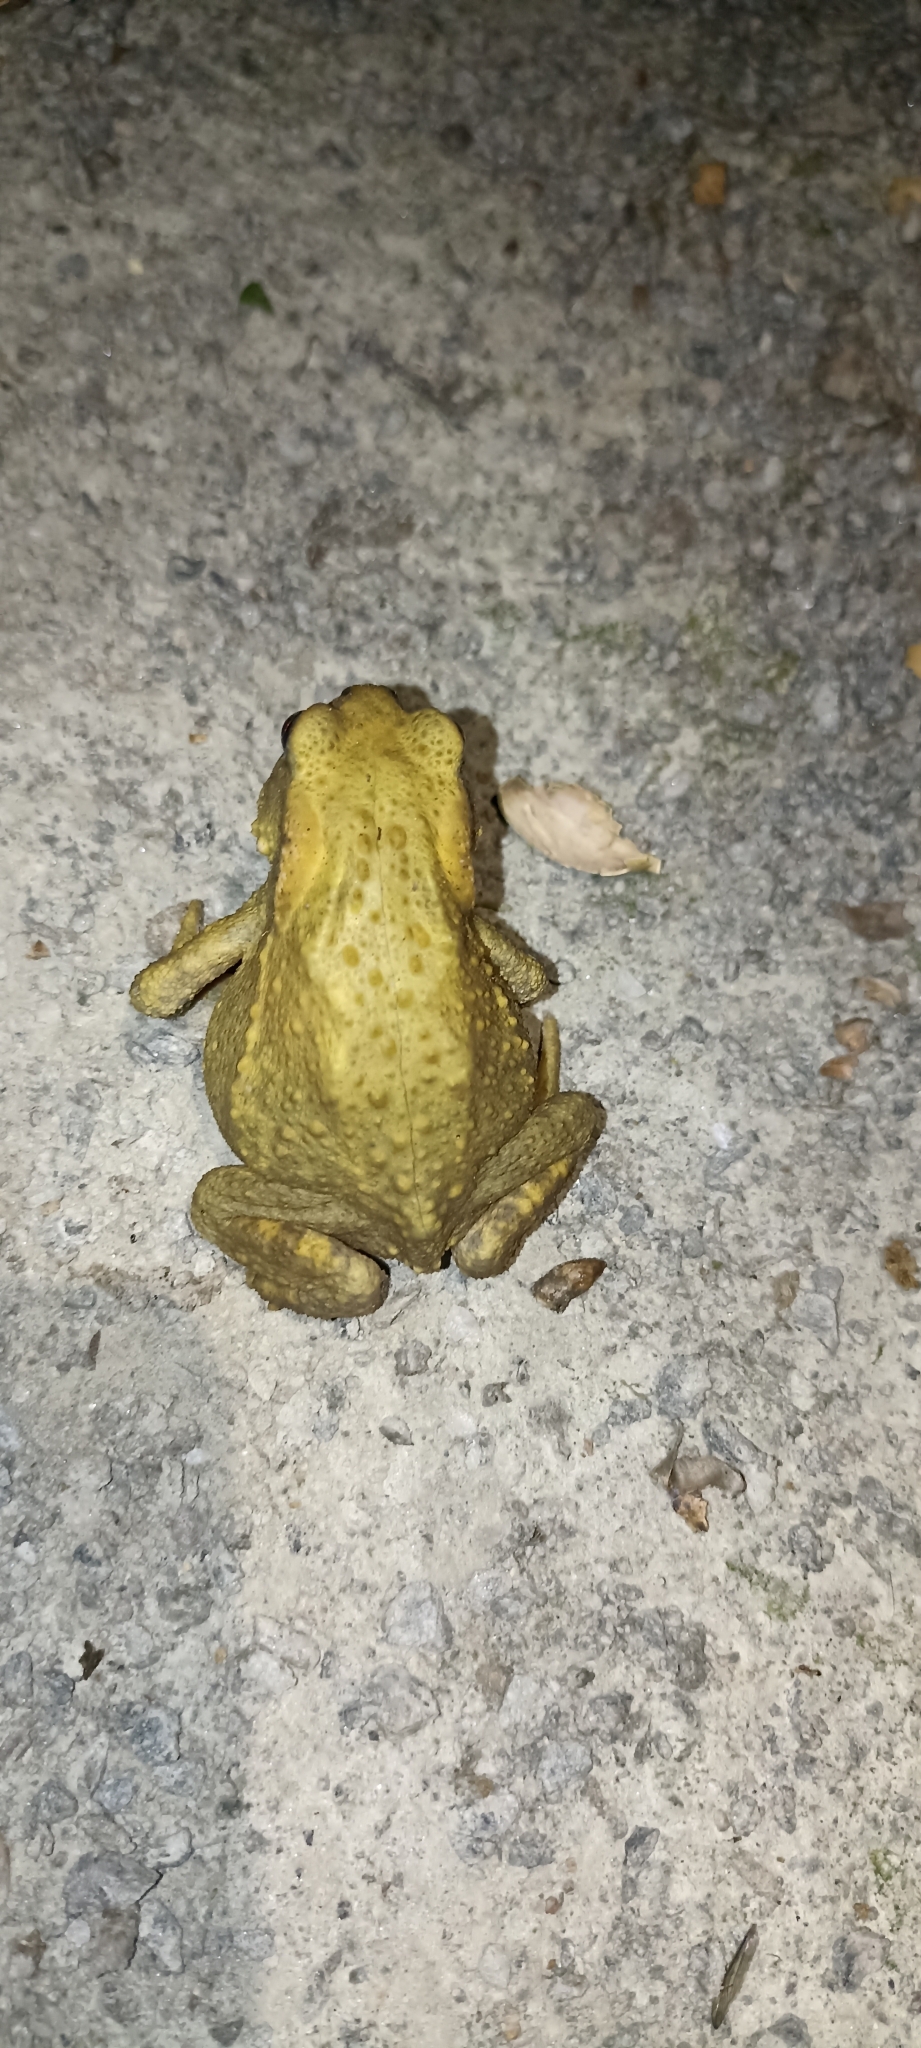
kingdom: Animalia
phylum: Chordata
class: Amphibia
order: Anura
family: Bufonidae
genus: Bufo
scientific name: Bufo spinosus
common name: Western common toad
